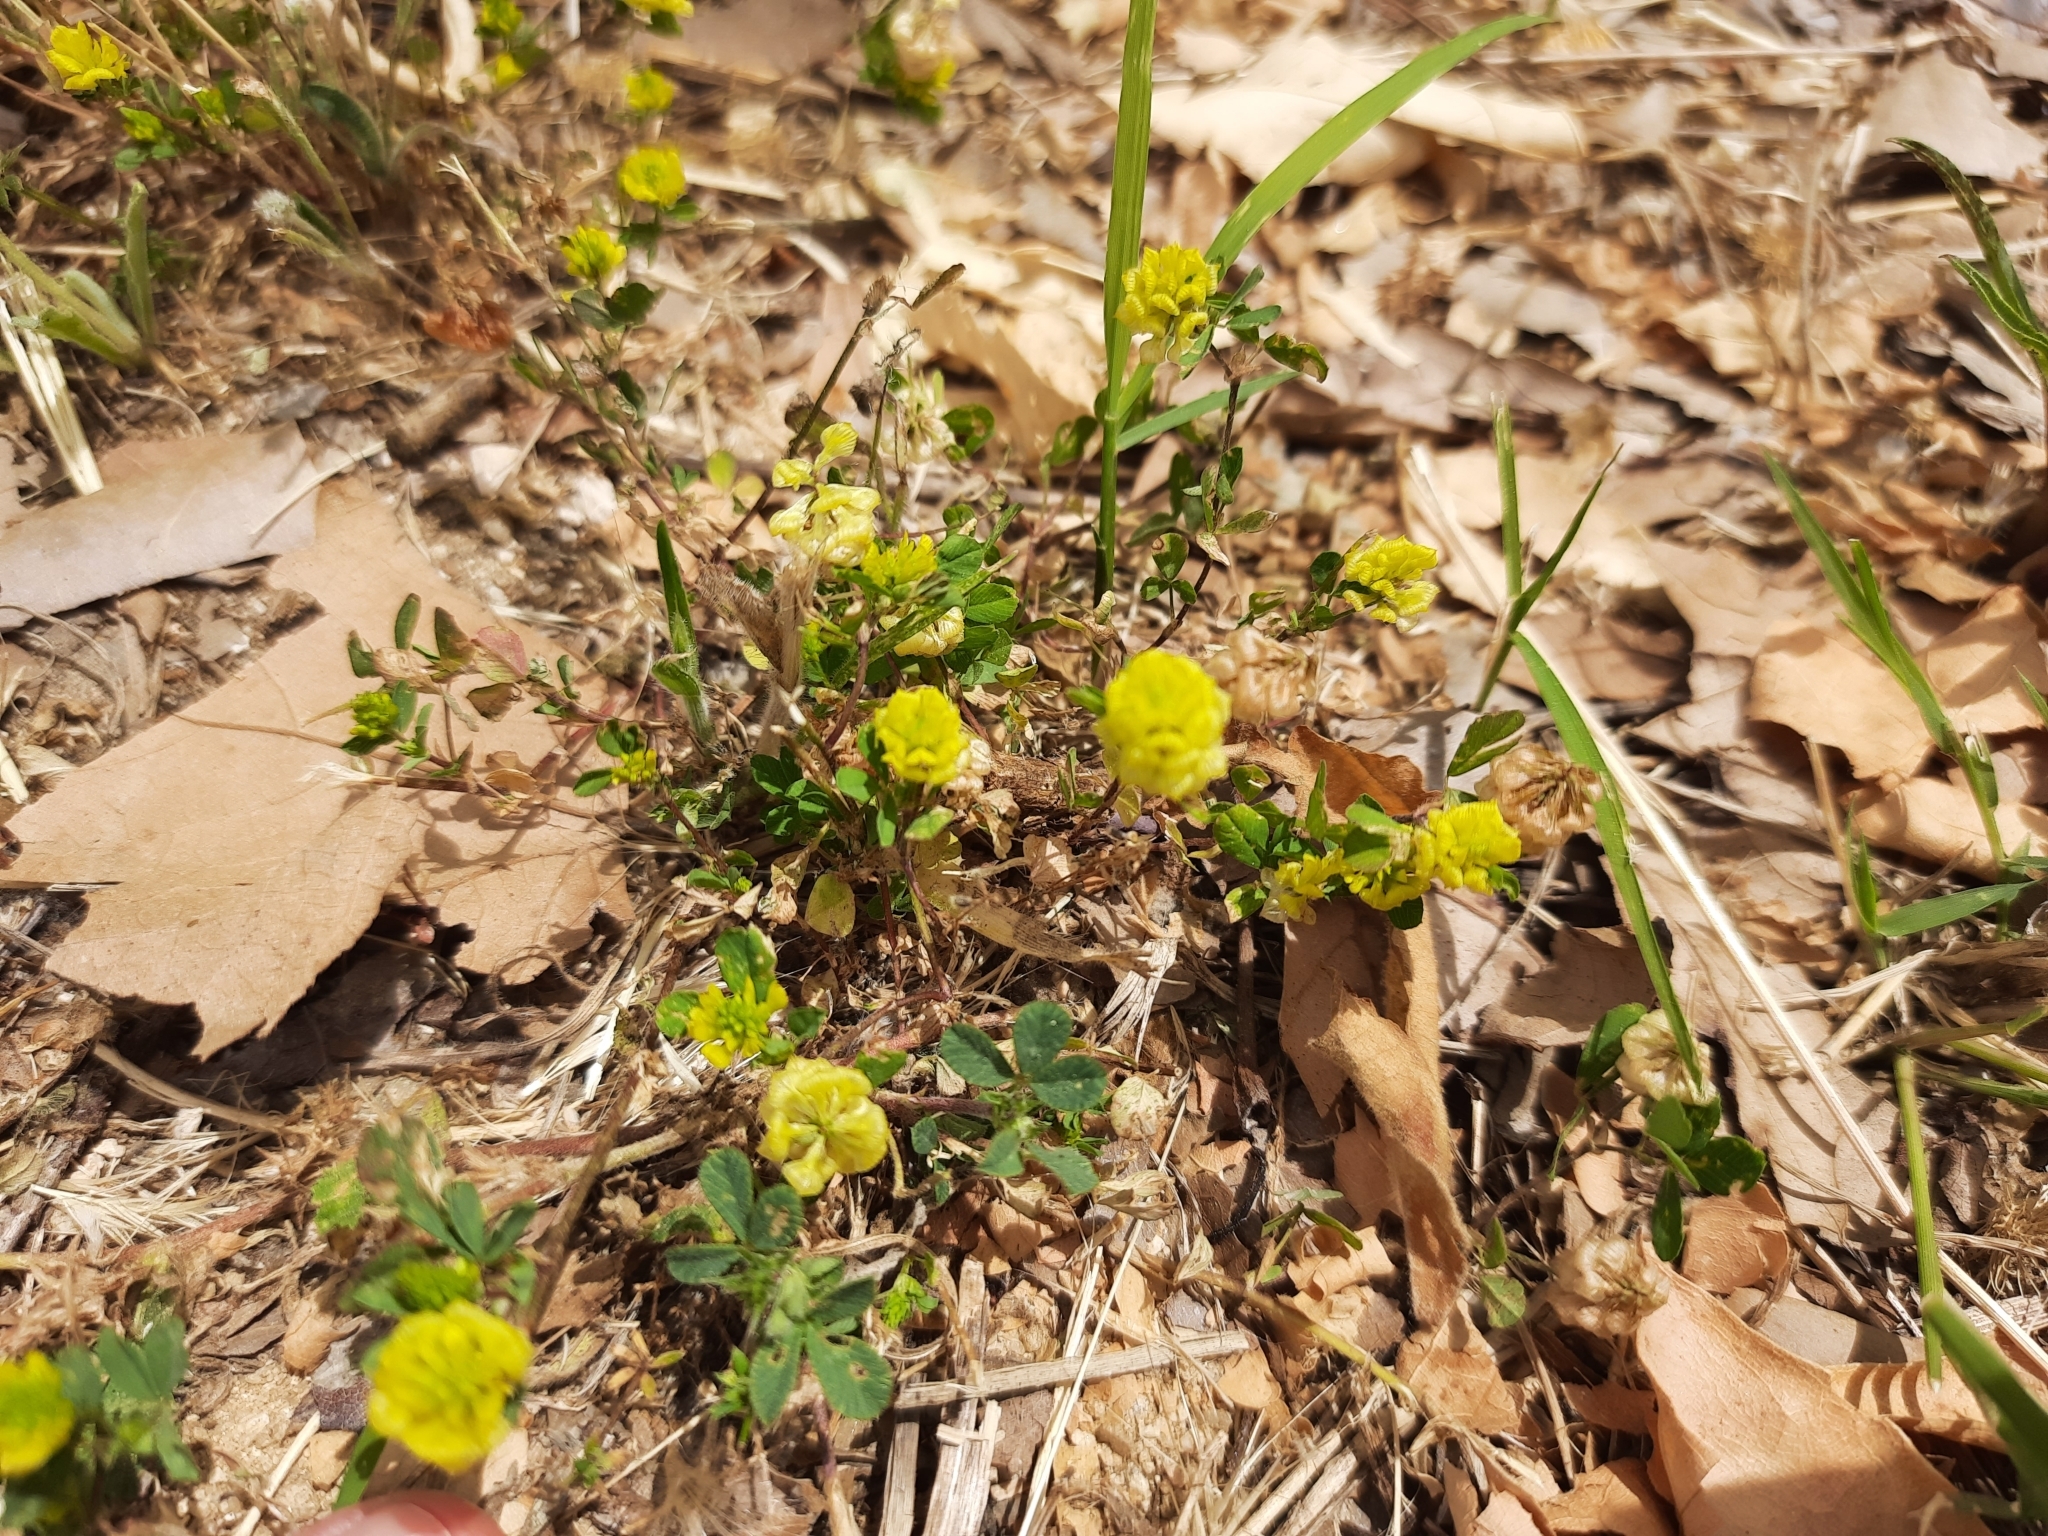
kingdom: Plantae
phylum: Tracheophyta
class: Magnoliopsida
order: Fabales
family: Fabaceae
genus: Trifolium
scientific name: Trifolium campestre
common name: Field clover
